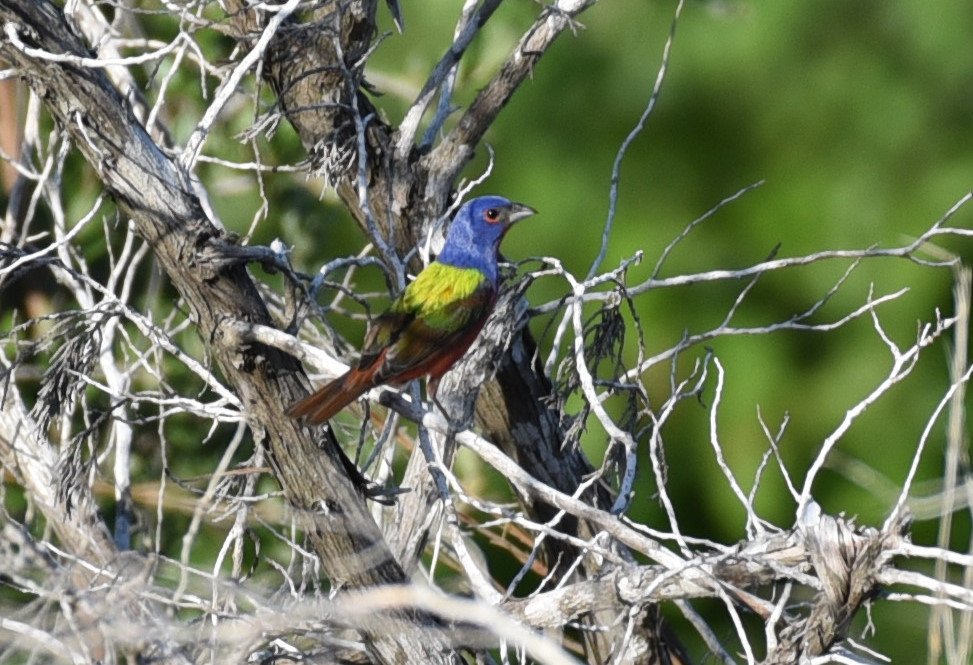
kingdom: Animalia
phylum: Chordata
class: Aves
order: Passeriformes
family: Cardinalidae
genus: Passerina
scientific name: Passerina ciris
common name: Painted bunting
